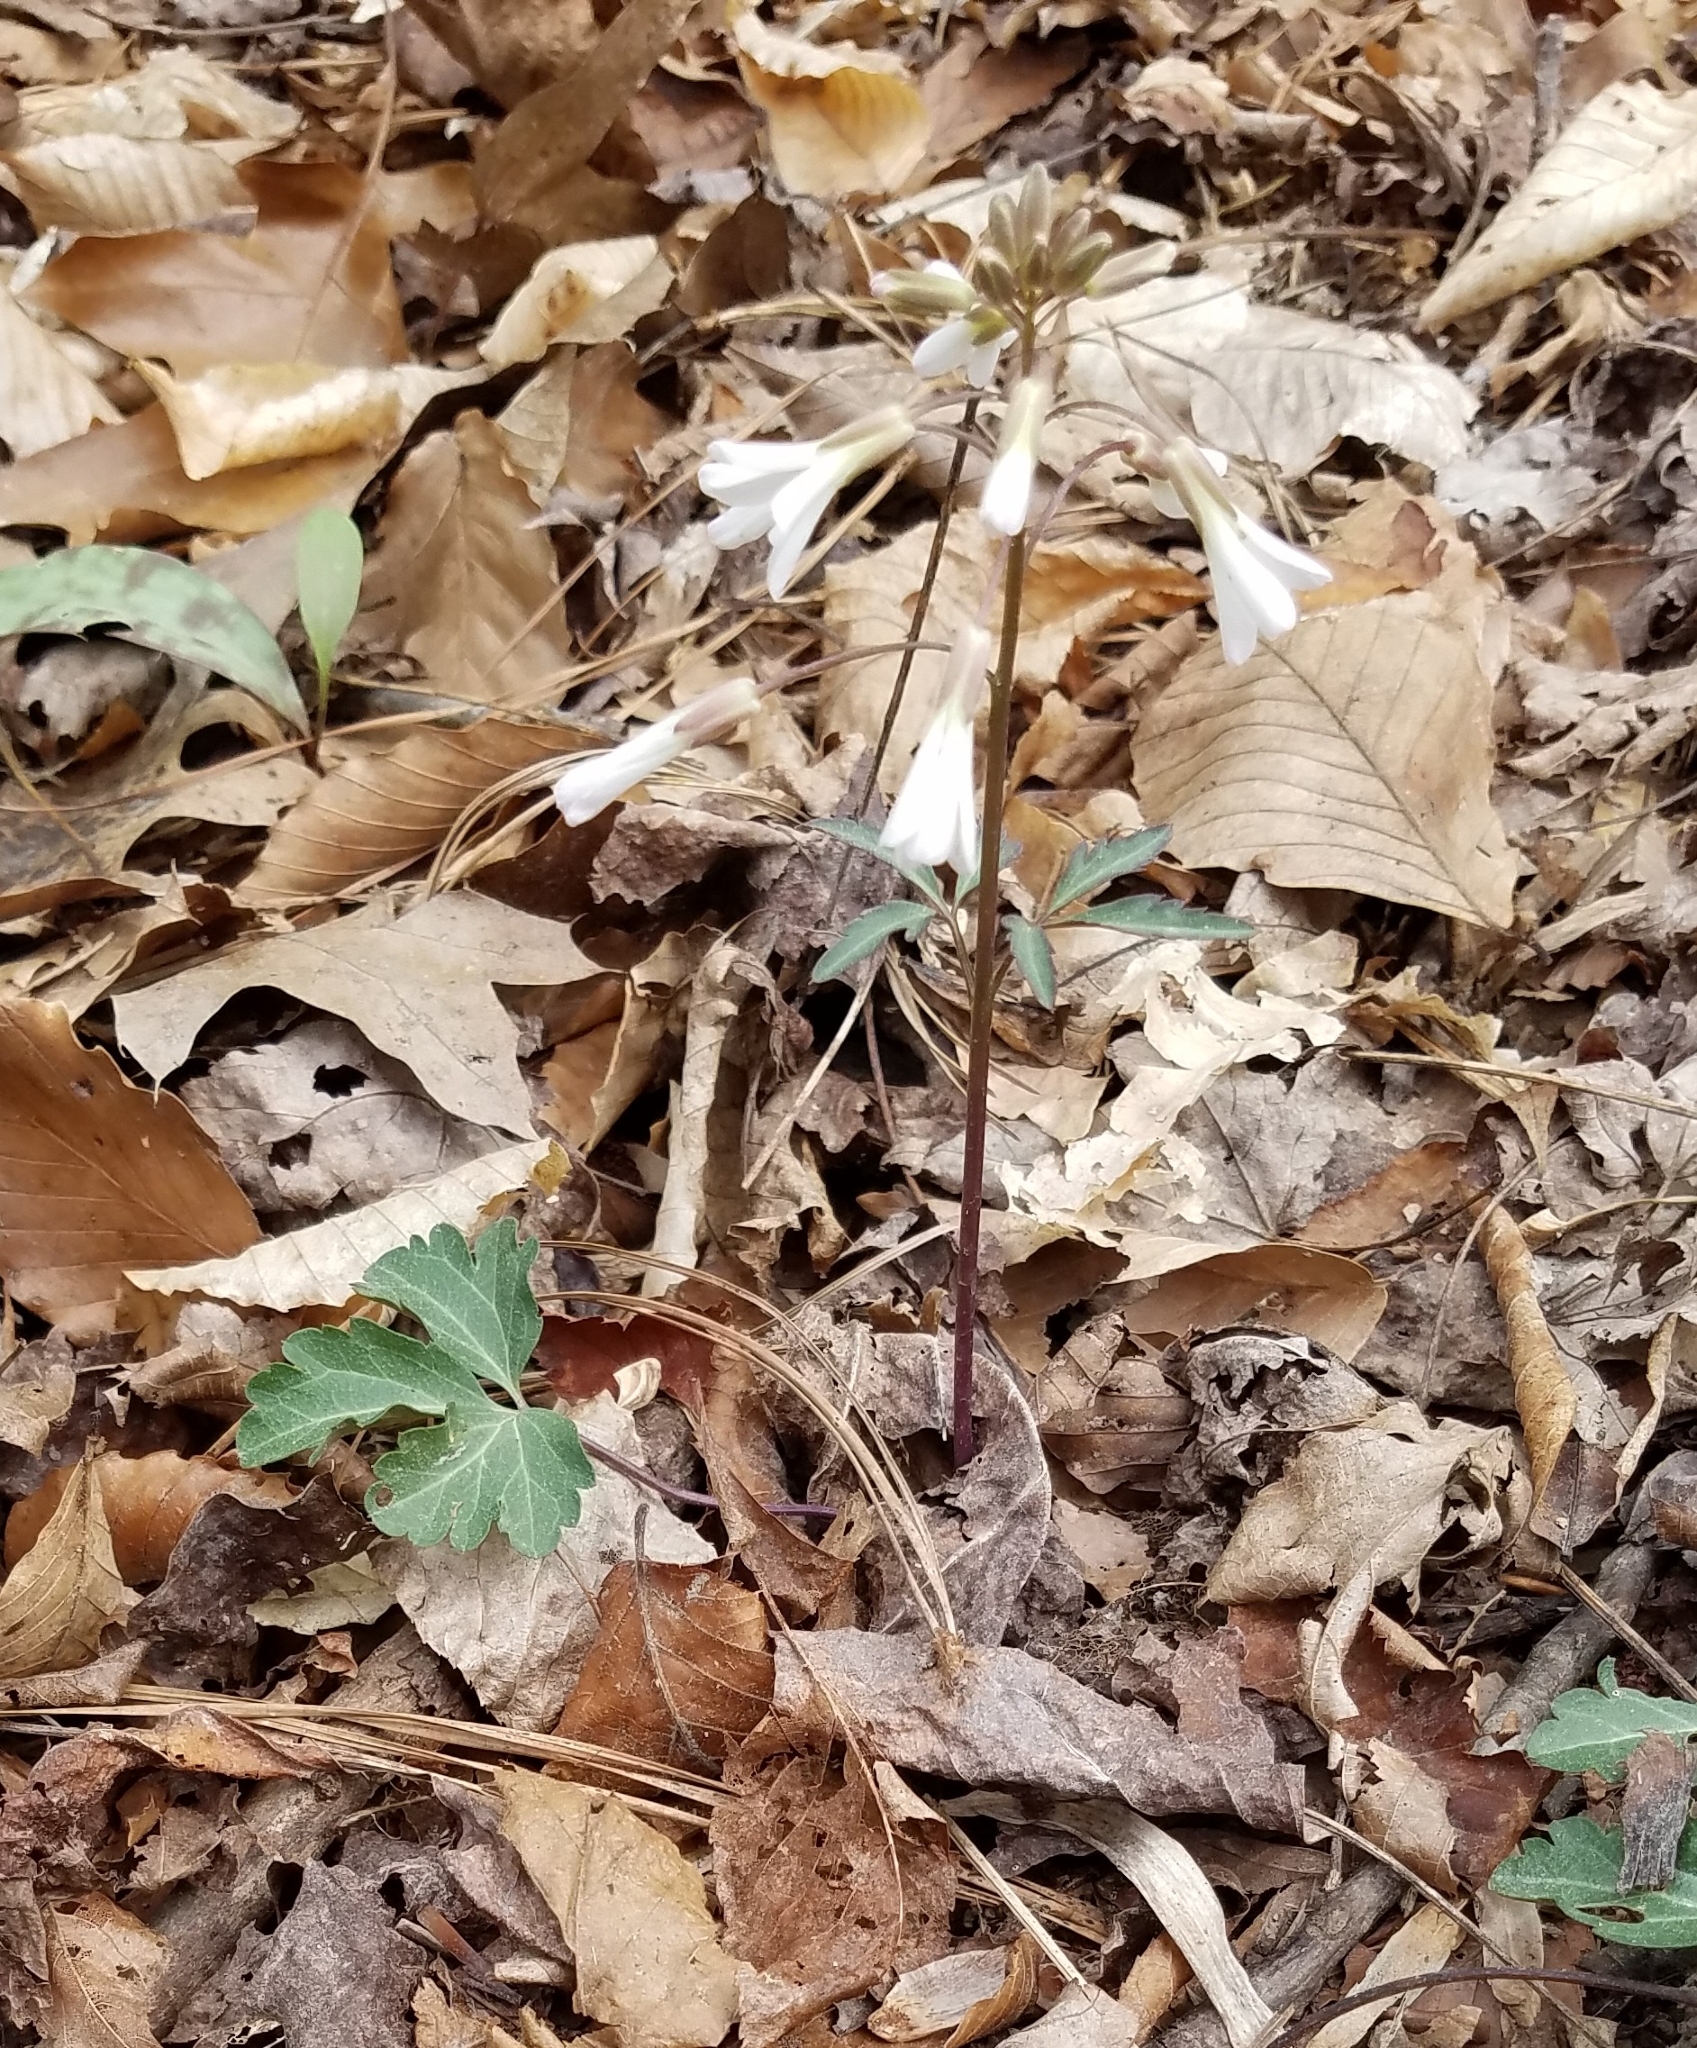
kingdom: Plantae
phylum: Tracheophyta
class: Magnoliopsida
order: Brassicales
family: Brassicaceae
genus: Cardamine
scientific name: Cardamine angustata
